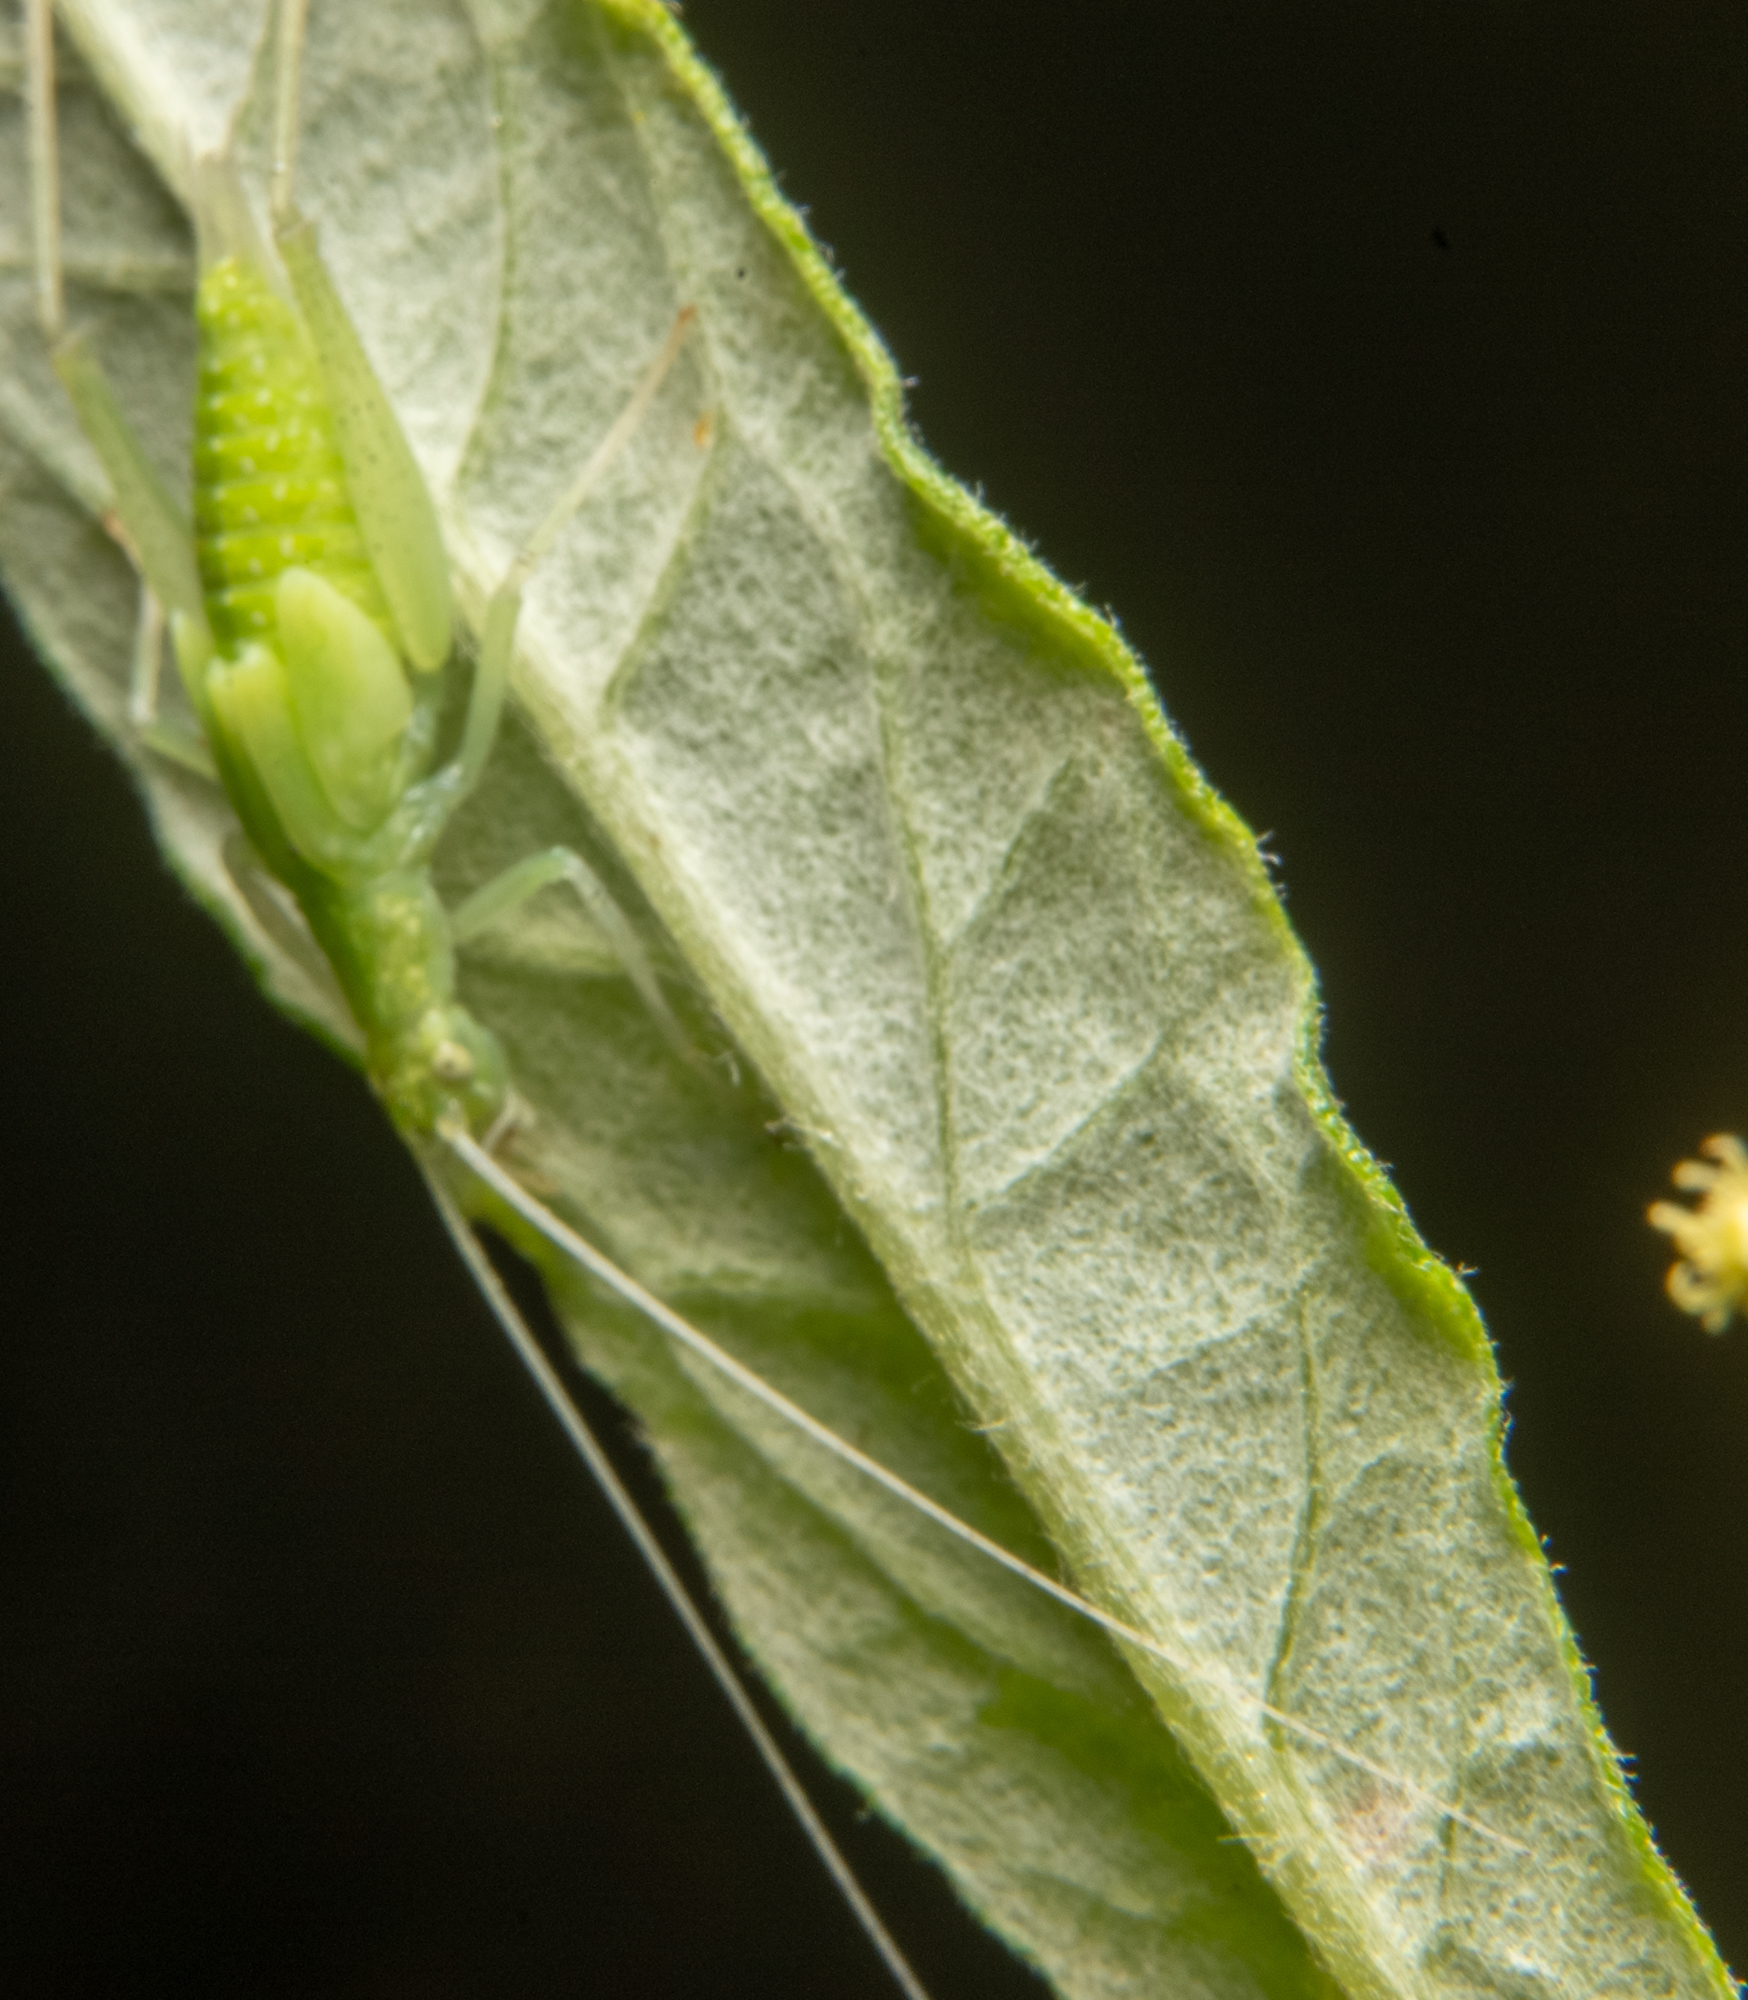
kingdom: Animalia
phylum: Arthropoda
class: Insecta
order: Orthoptera
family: Gryllidae
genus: Oecanthus
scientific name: Oecanthus rileyi
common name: Riley's tree cricket
